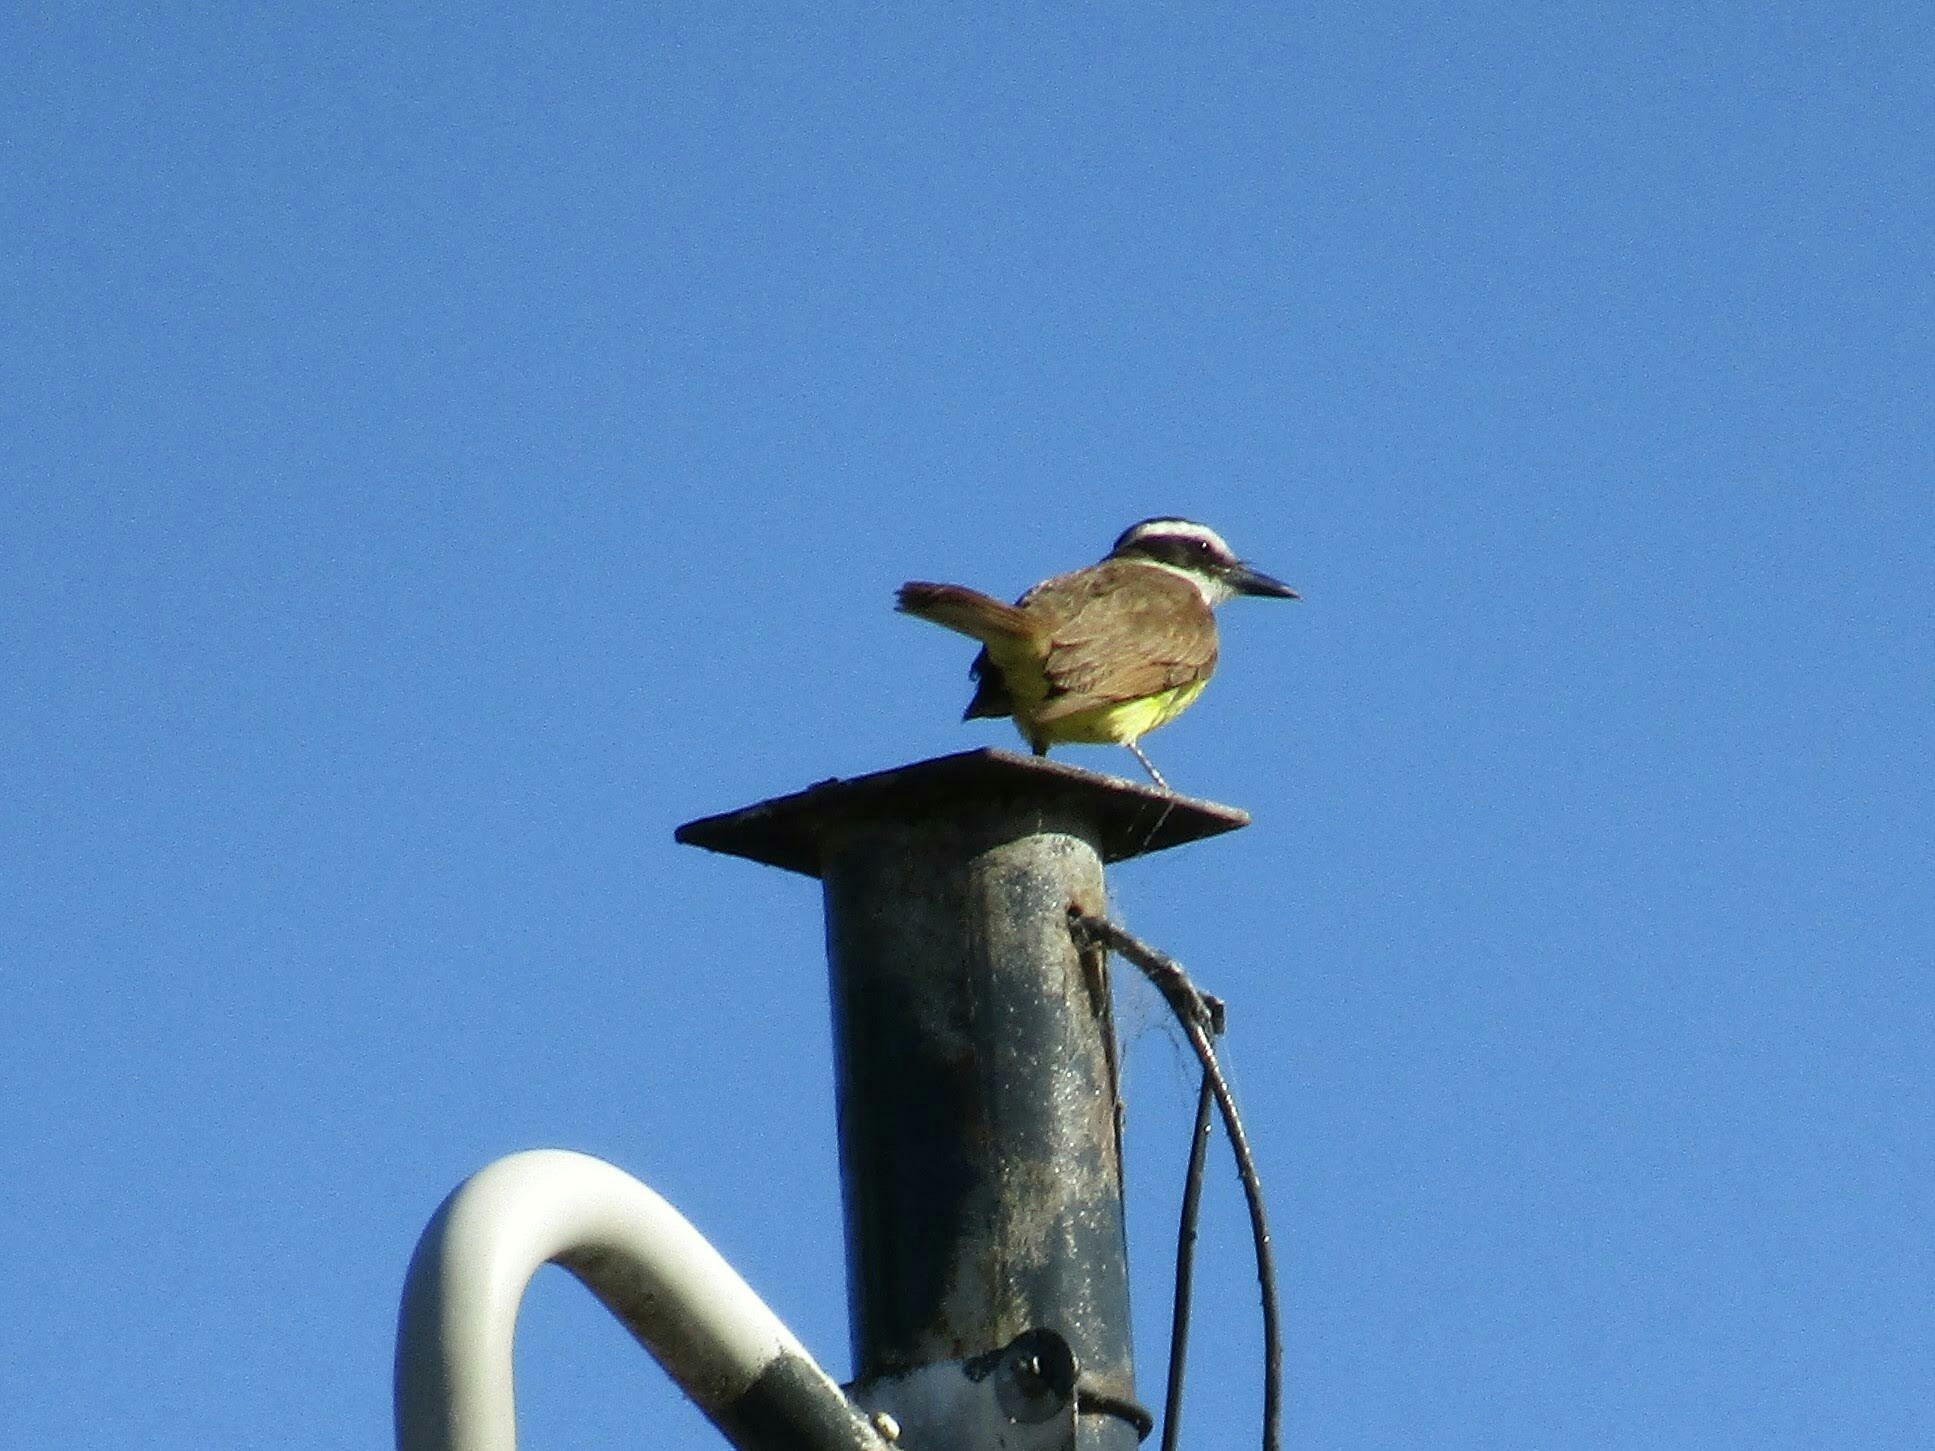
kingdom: Animalia
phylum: Chordata
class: Aves
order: Passeriformes
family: Tyrannidae
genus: Pitangus
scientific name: Pitangus sulphuratus
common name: Great kiskadee
